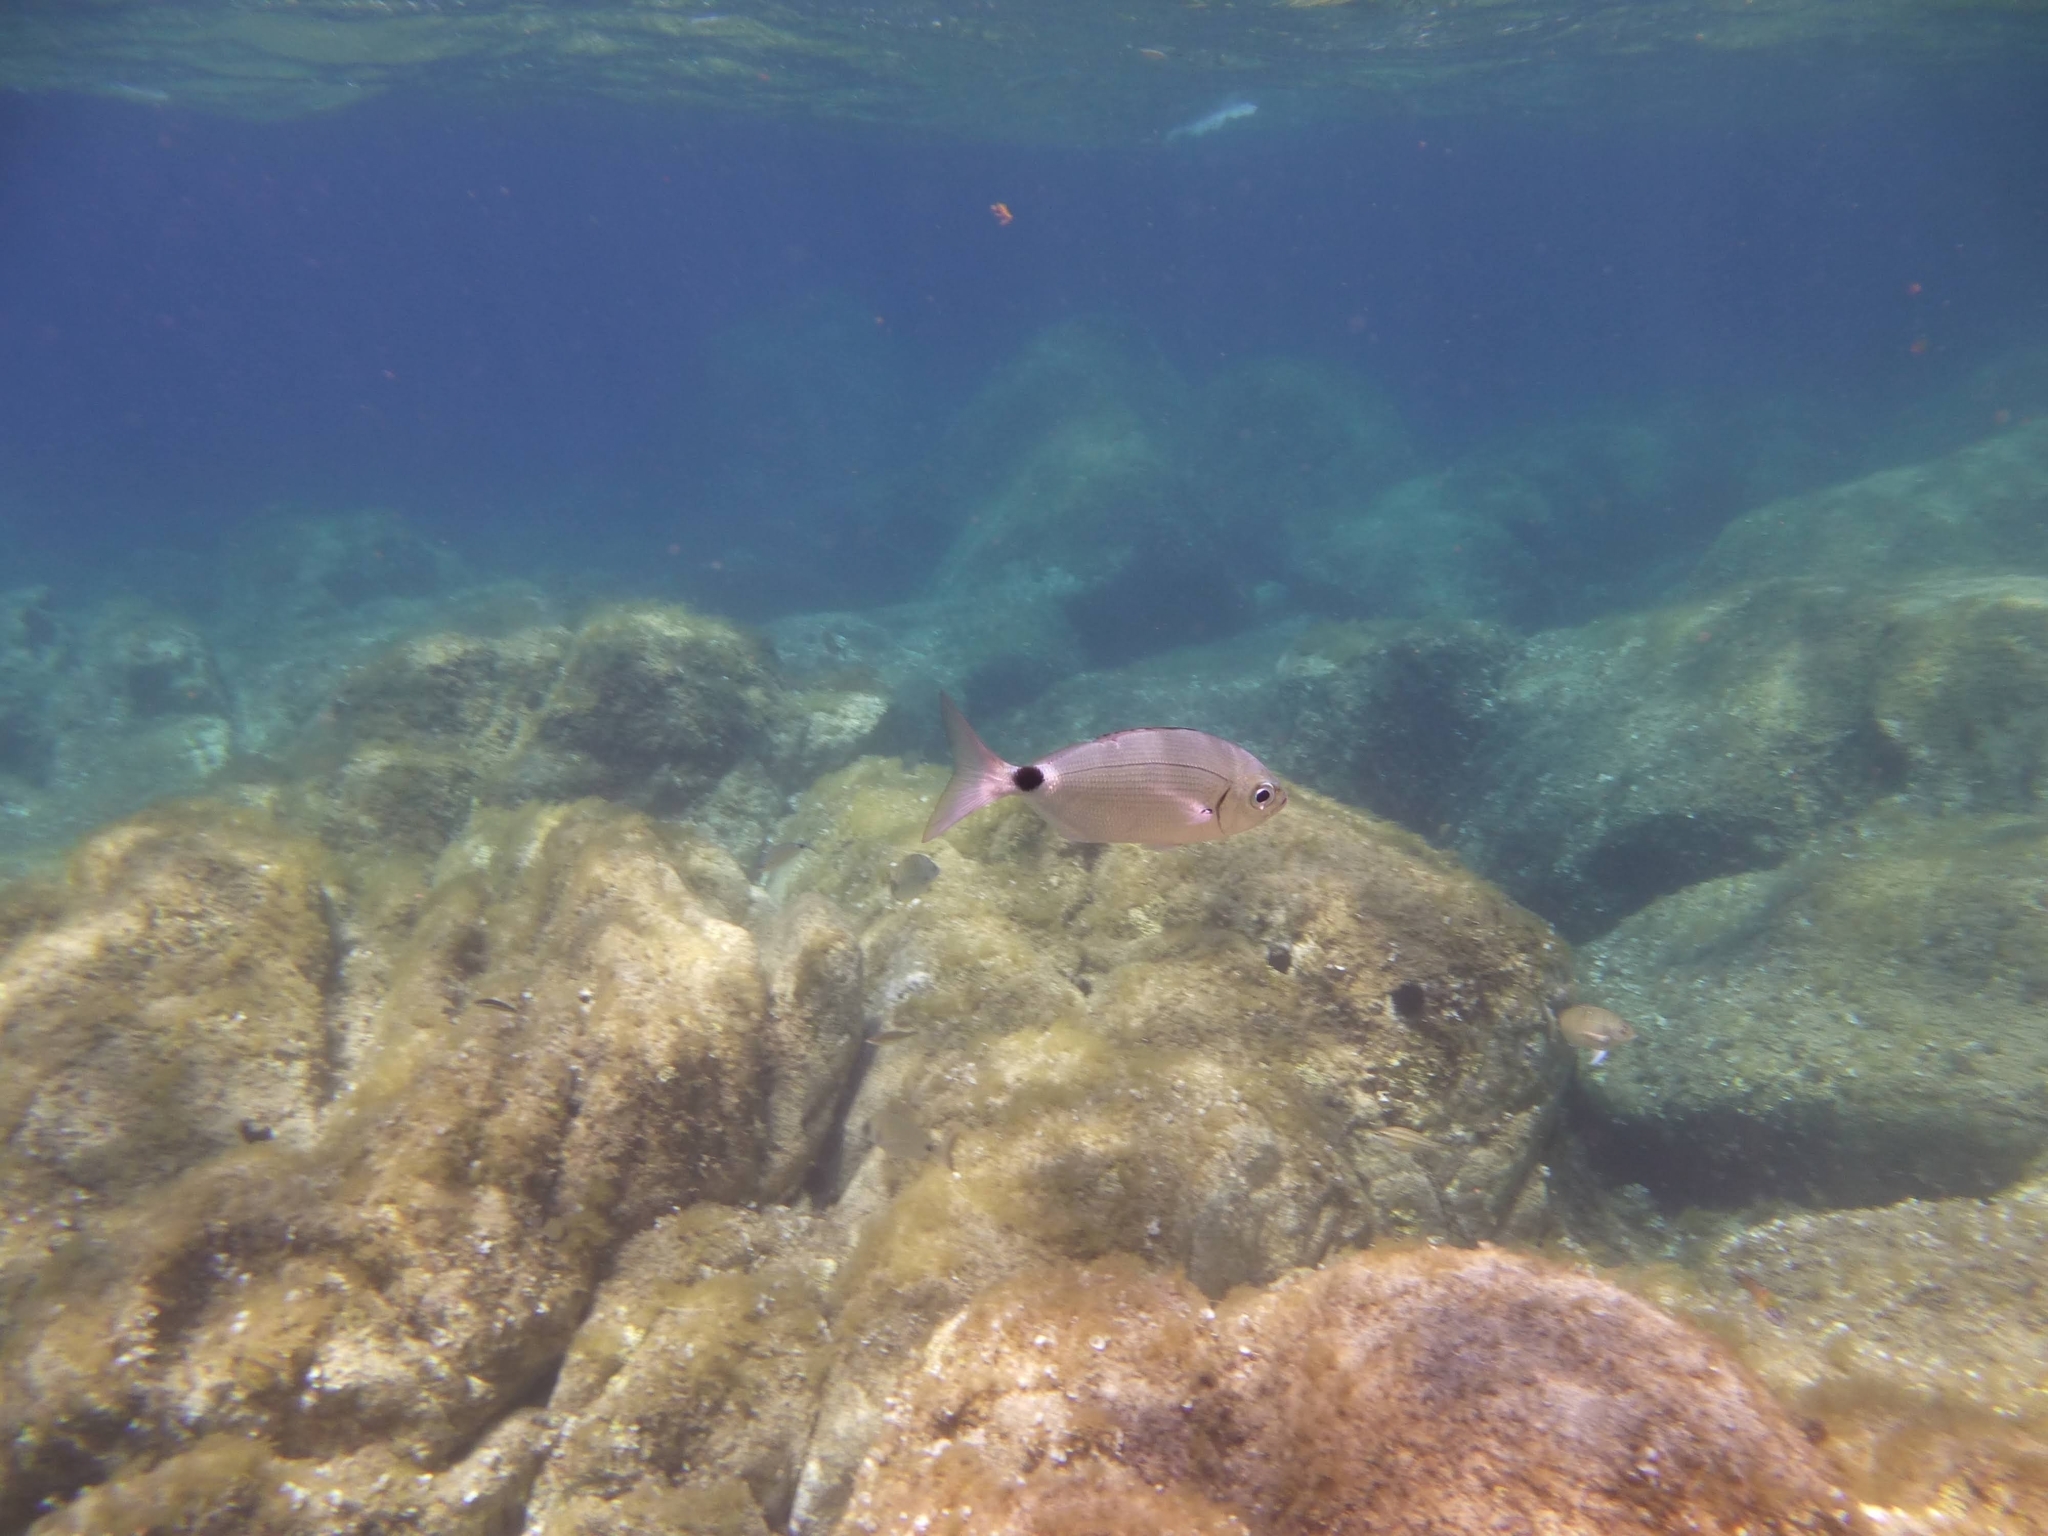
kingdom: Animalia
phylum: Chordata
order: Perciformes
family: Sparidae
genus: Oblada
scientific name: Oblada melanura
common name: Saddled seabream
